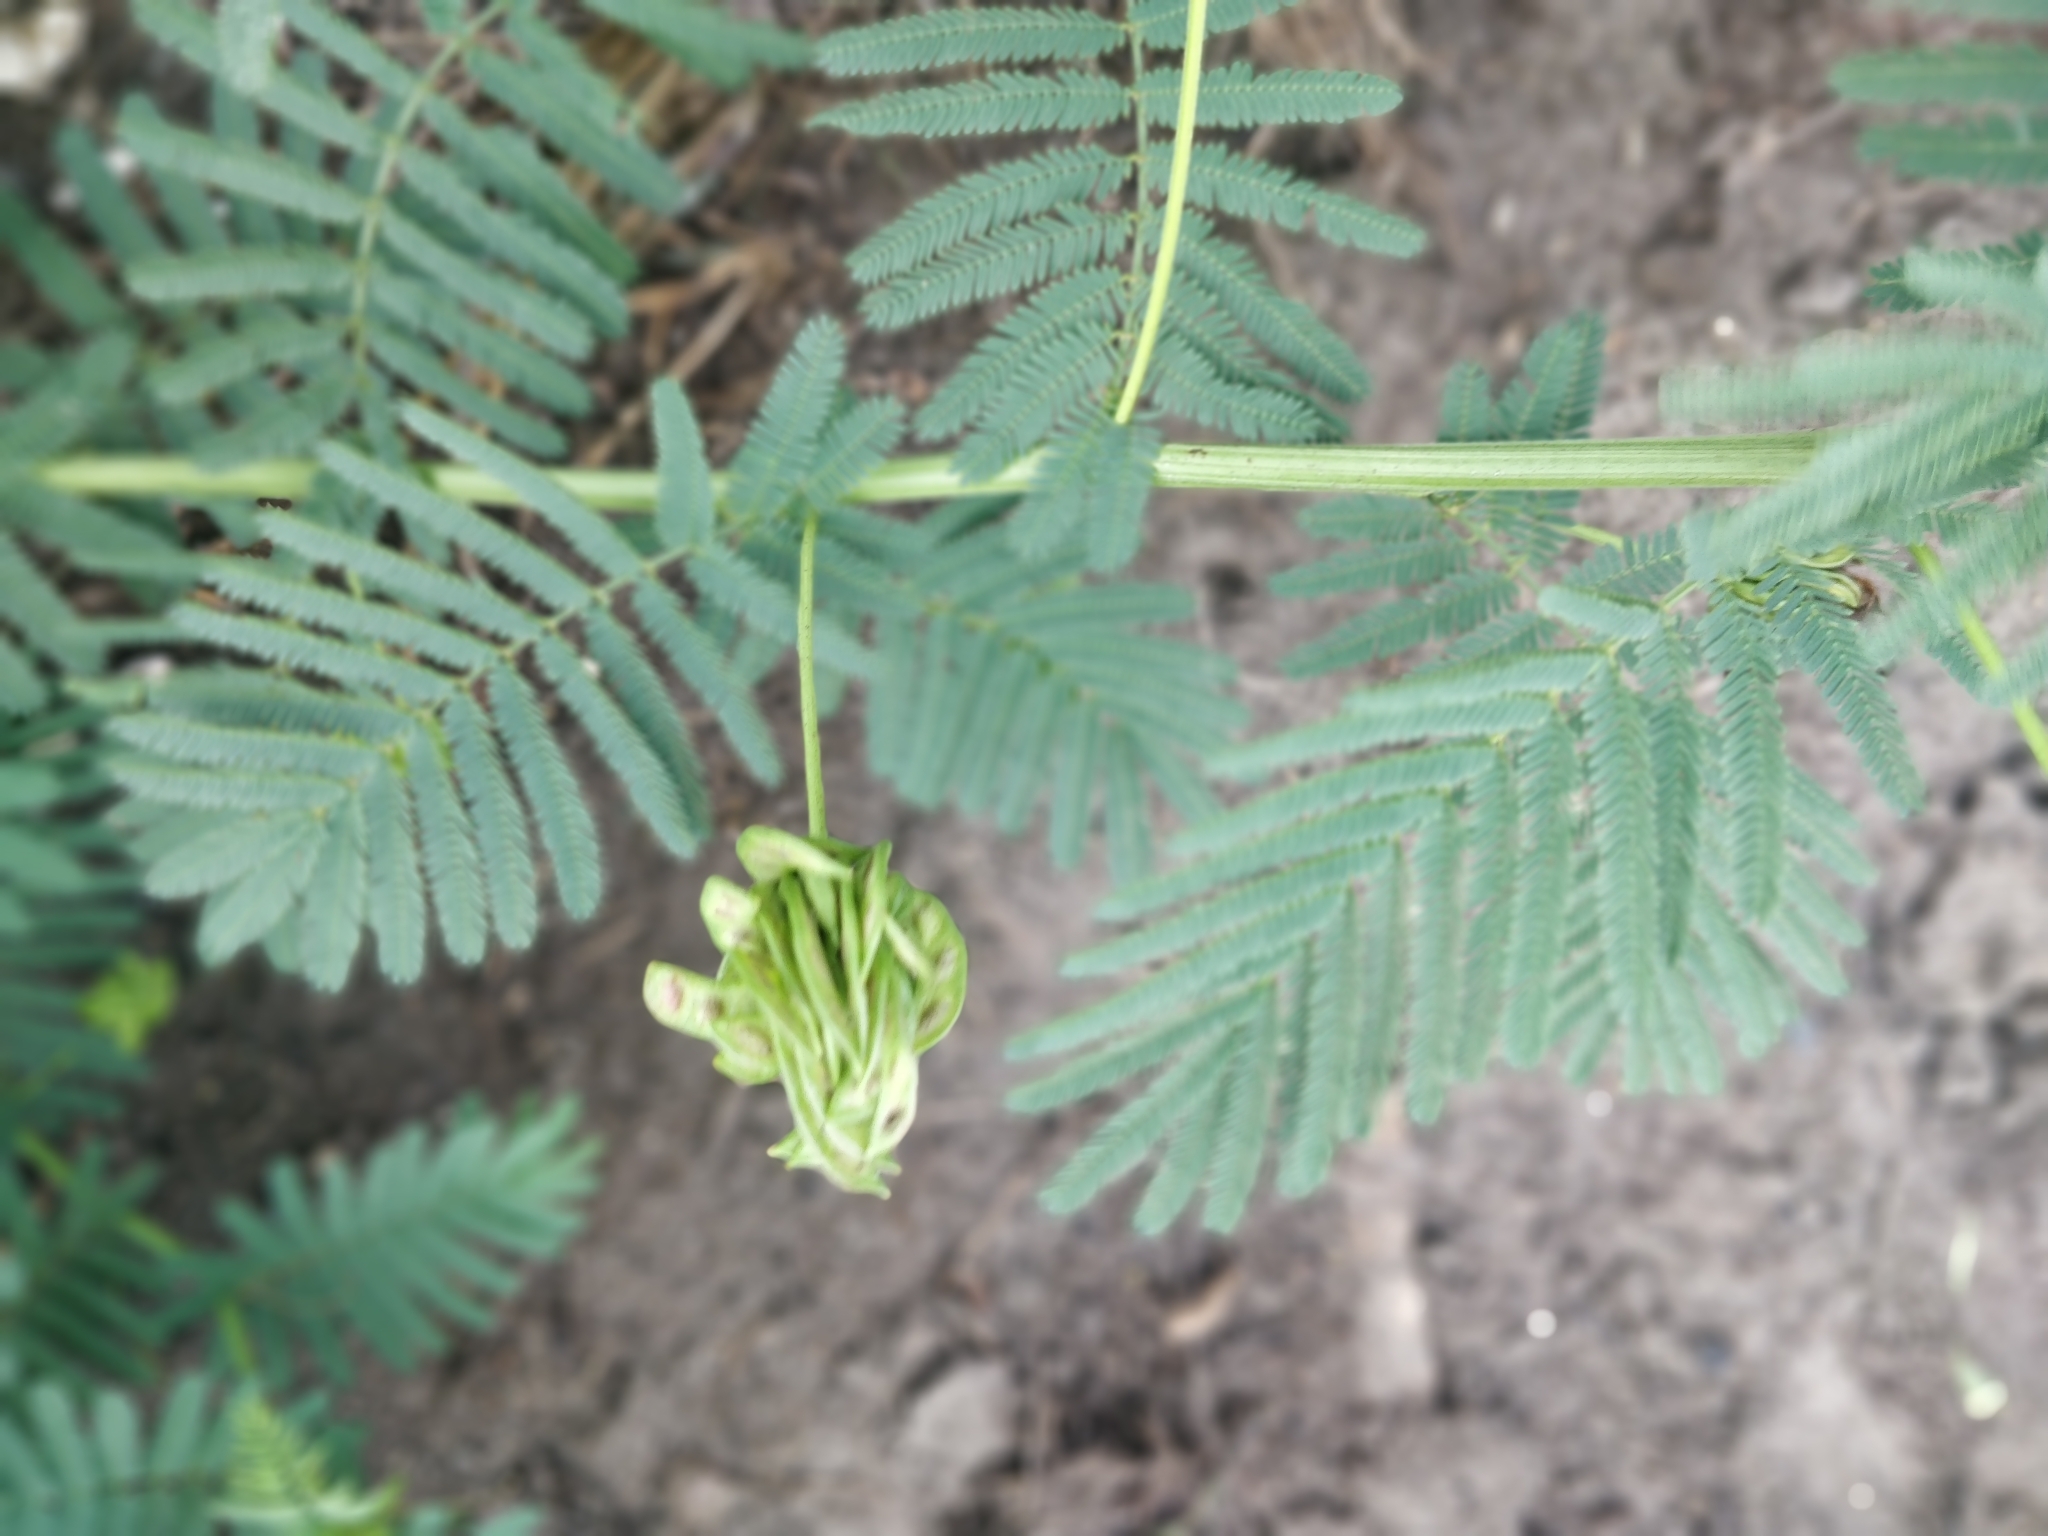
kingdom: Plantae
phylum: Tracheophyta
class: Magnoliopsida
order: Fabales
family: Fabaceae
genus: Desmanthus
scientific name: Desmanthus illinoensis
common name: Illinois bundle-flower
